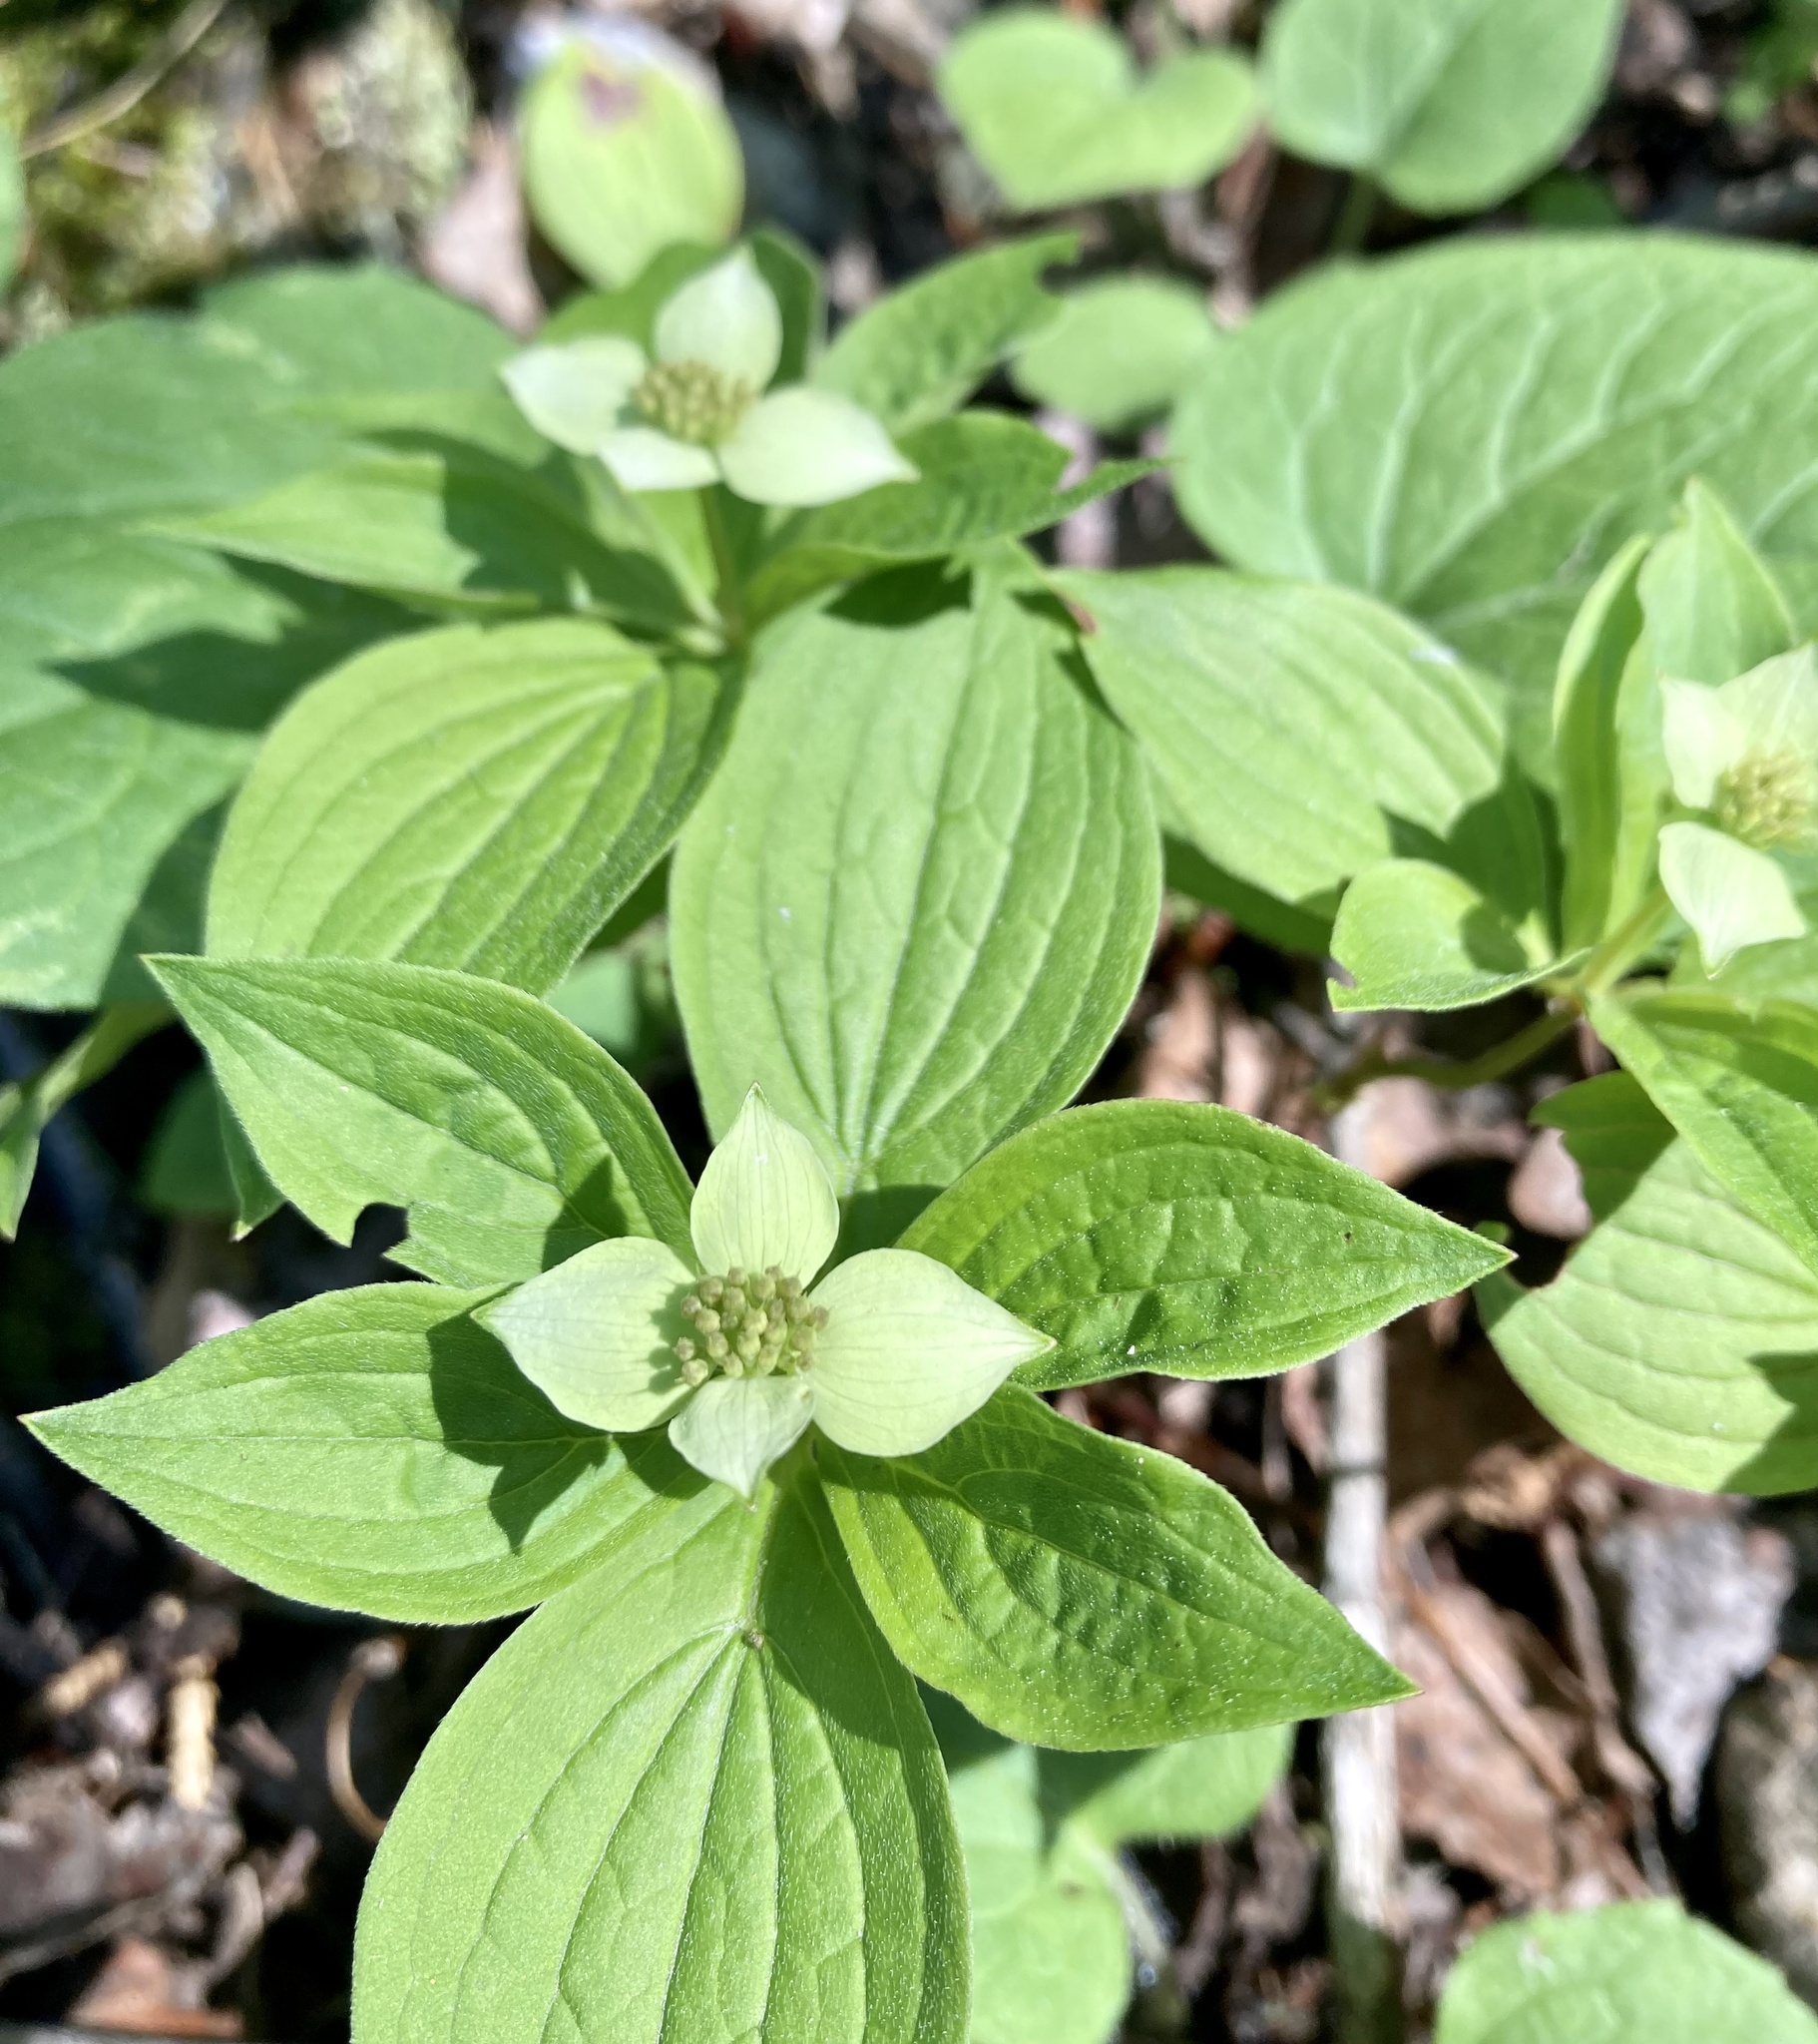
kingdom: Plantae
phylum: Tracheophyta
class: Magnoliopsida
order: Cornales
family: Cornaceae
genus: Cornus
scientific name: Cornus canadensis
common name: Creeping dogwood
